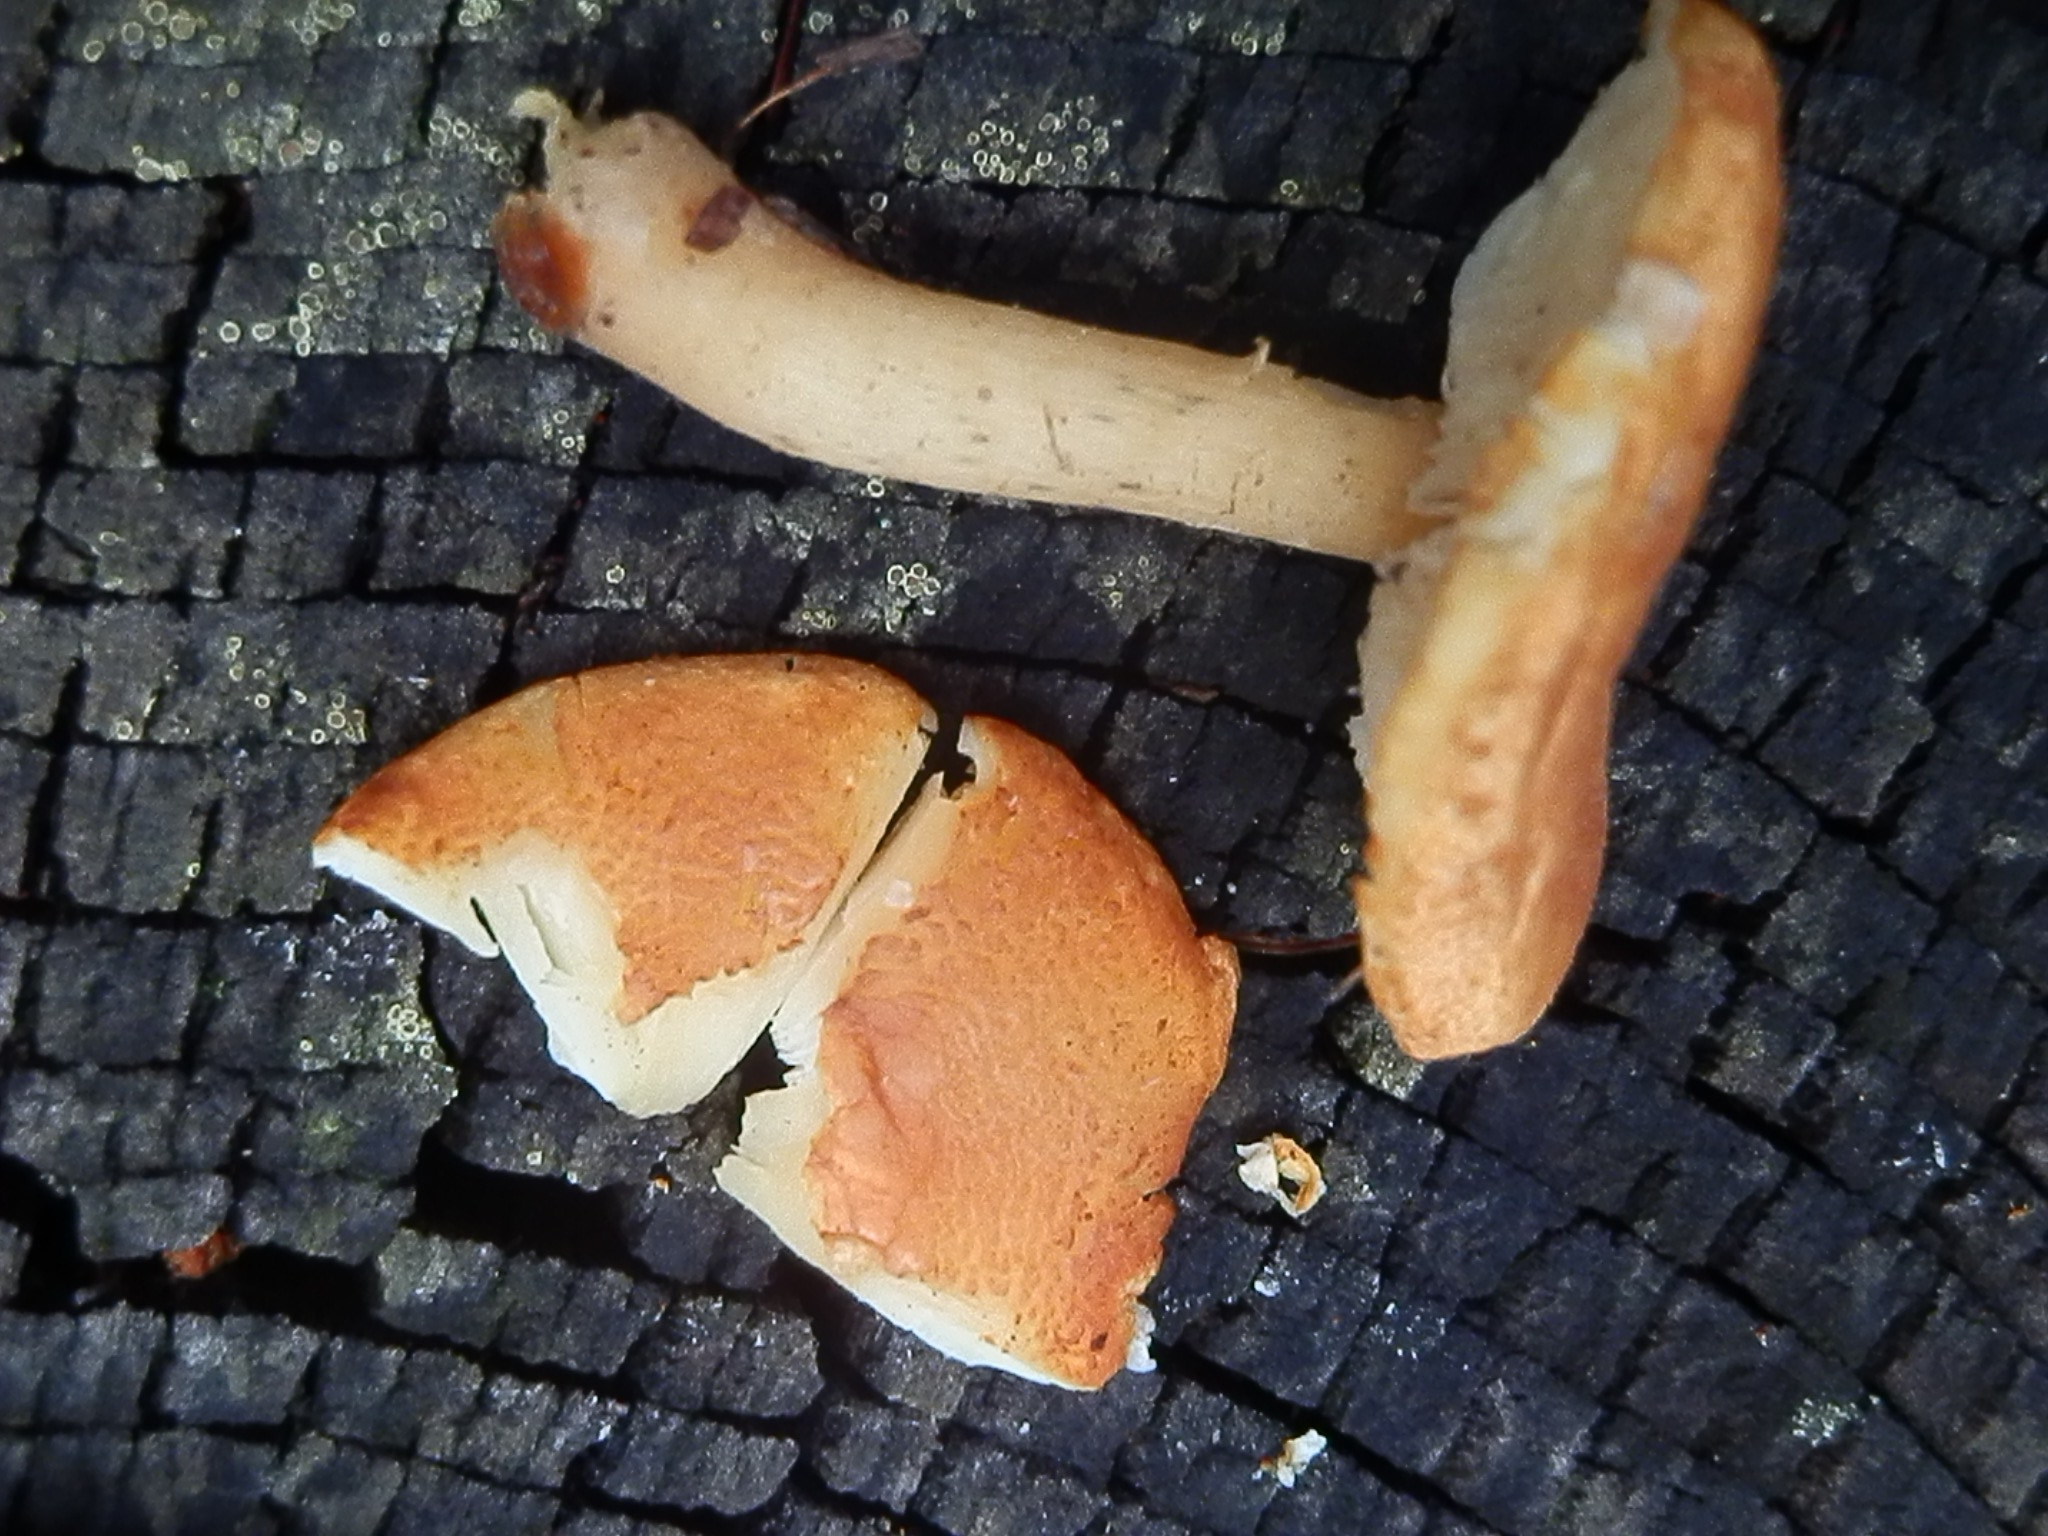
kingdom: Fungi
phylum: Basidiomycota
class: Agaricomycetes
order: Agaricales
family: Agaricaceae
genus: Cystodermella
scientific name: Cystodermella cinnabarina
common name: Cinnabar powdercap
